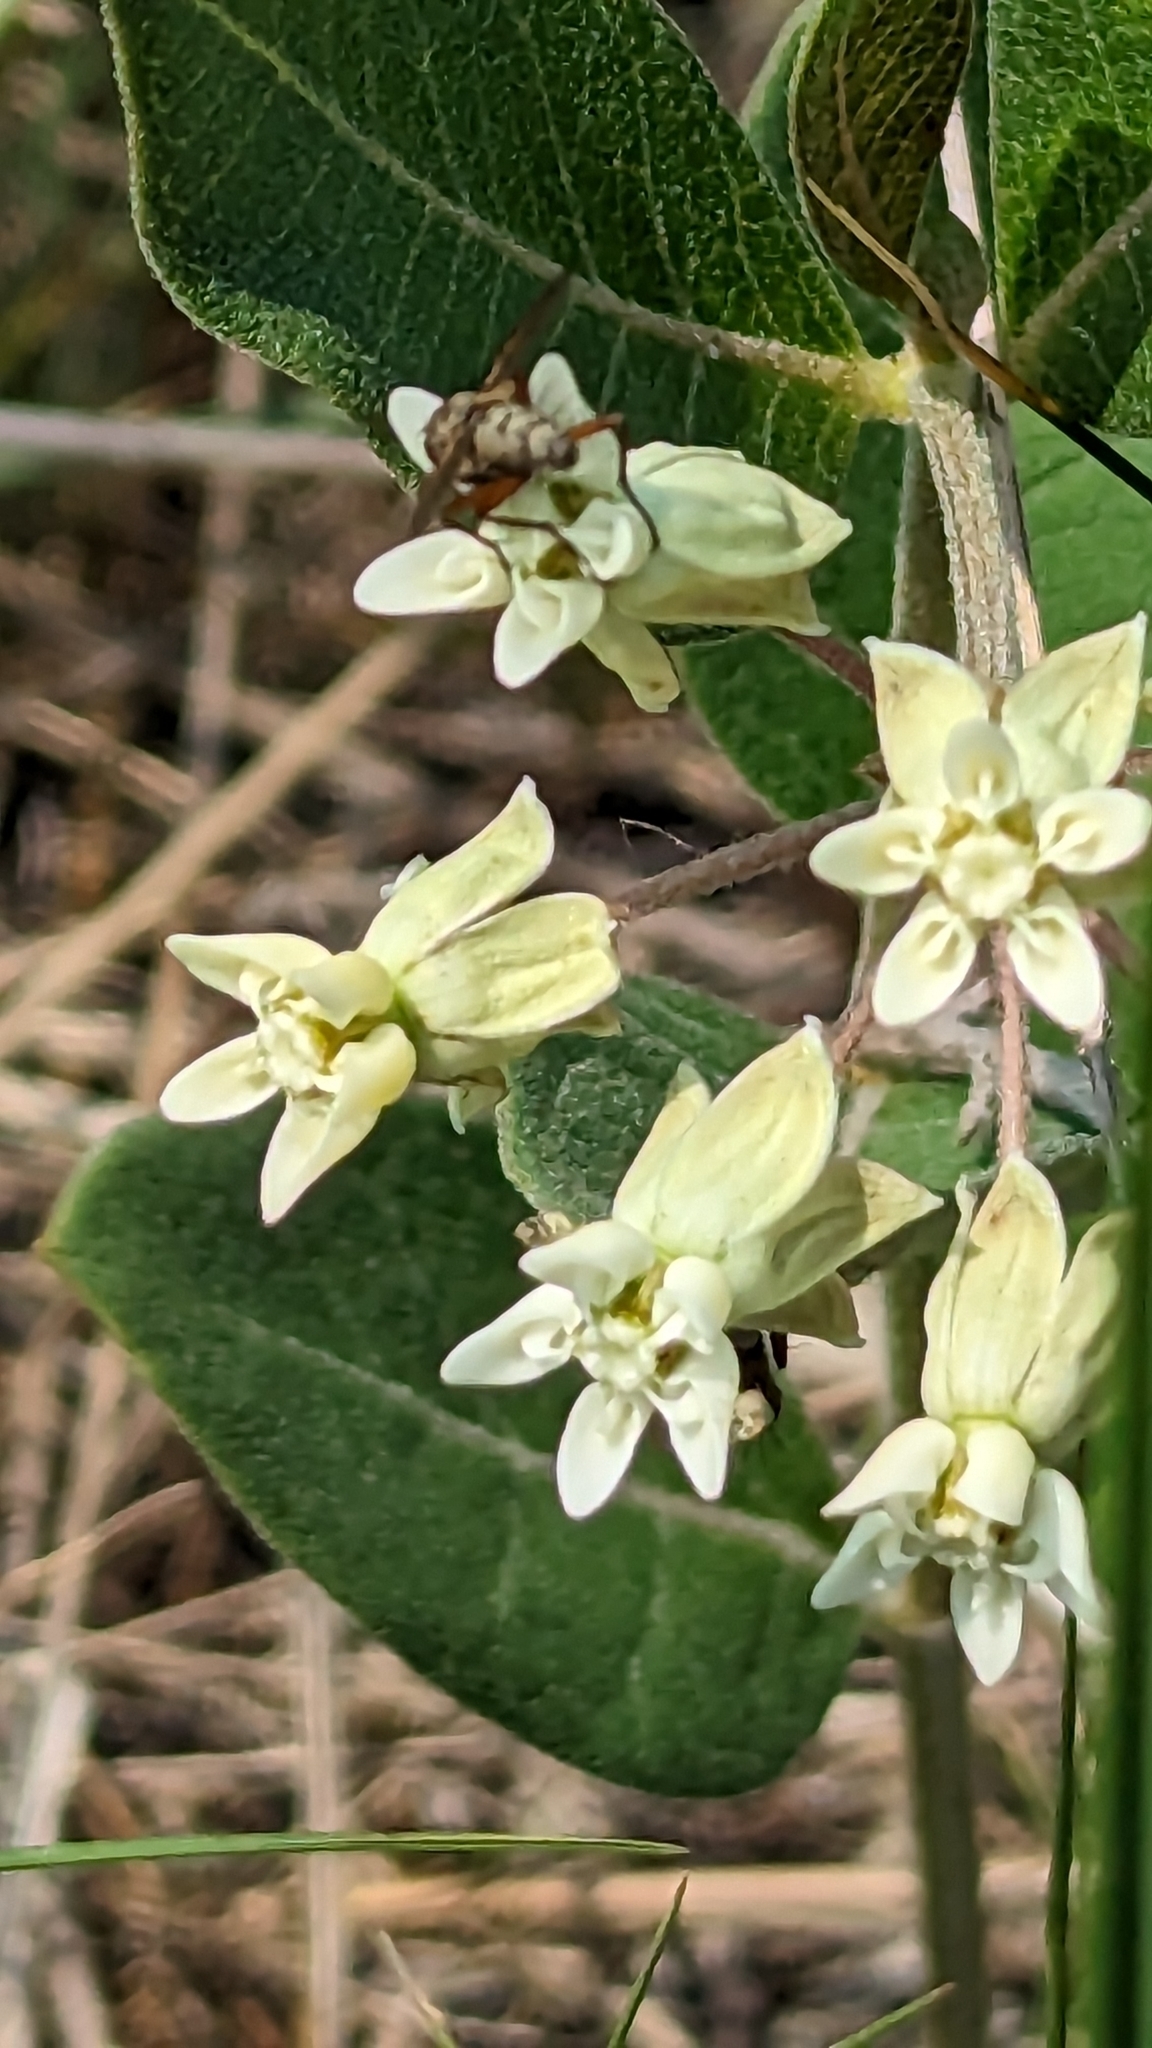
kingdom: Plantae
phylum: Tracheophyta
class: Magnoliopsida
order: Gentianales
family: Apocynaceae
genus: Asclepias
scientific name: Asclepias ovalifolia
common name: Dwarf milkweed
